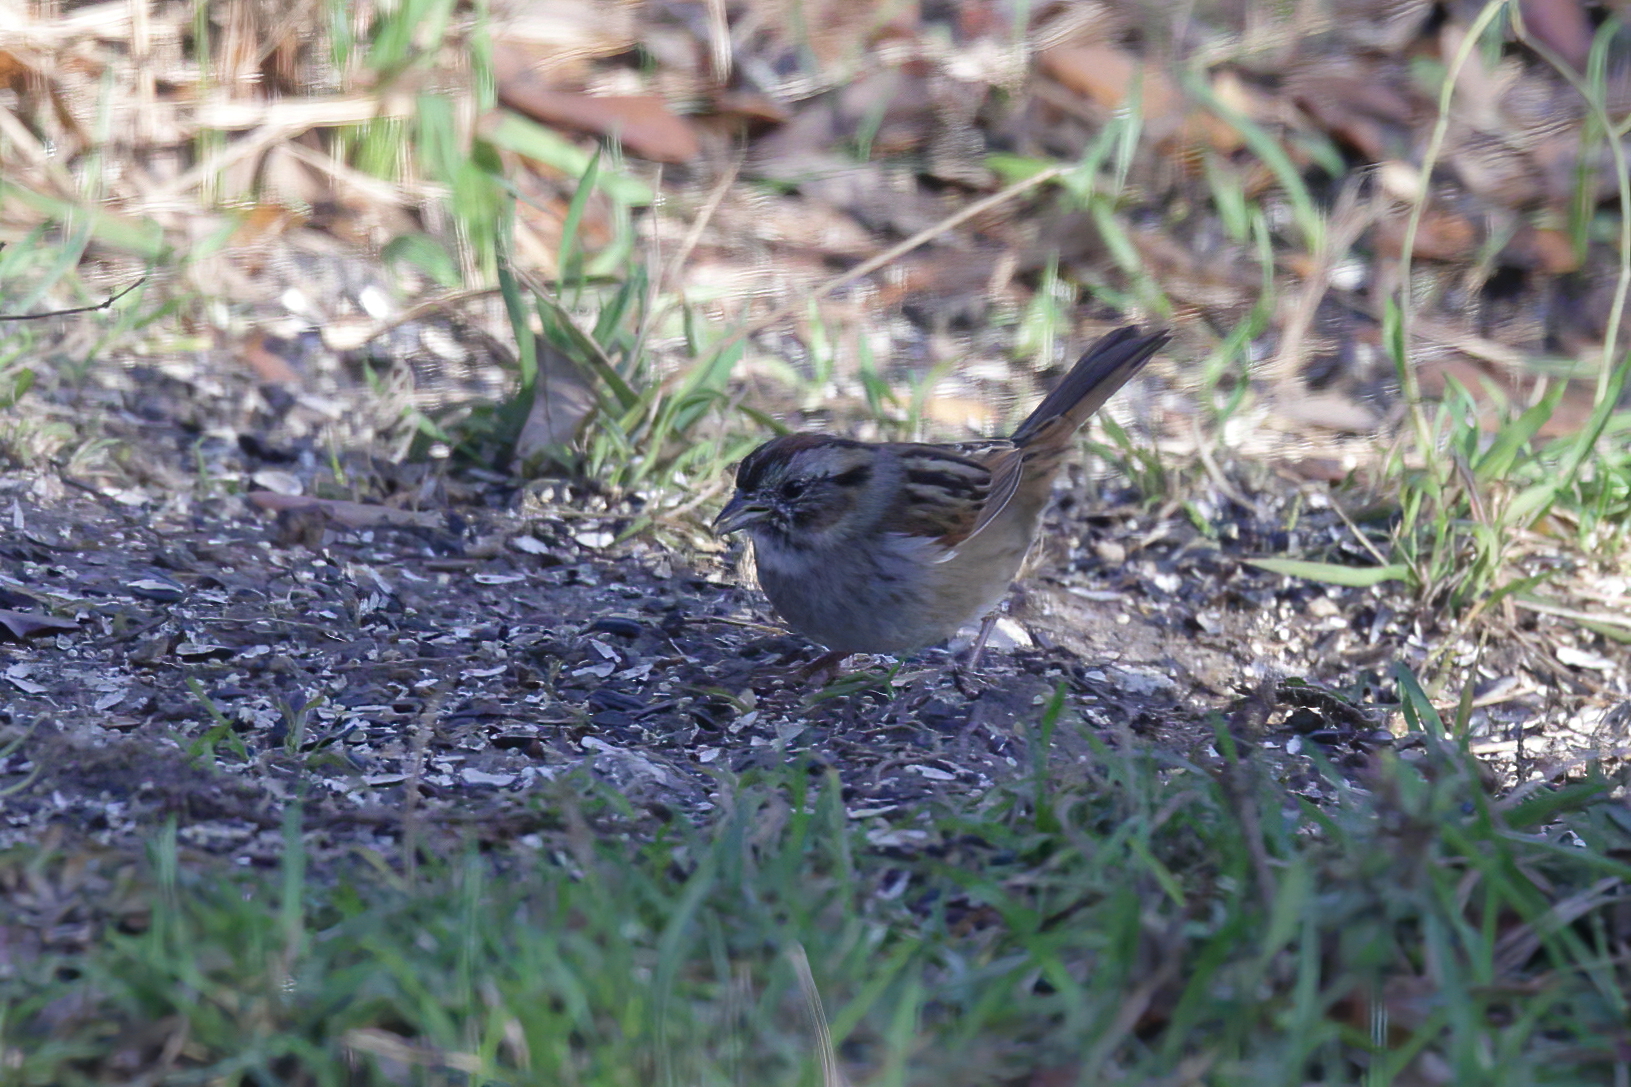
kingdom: Animalia
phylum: Chordata
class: Aves
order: Passeriformes
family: Passerellidae
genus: Melospiza
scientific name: Melospiza georgiana
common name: Swamp sparrow
